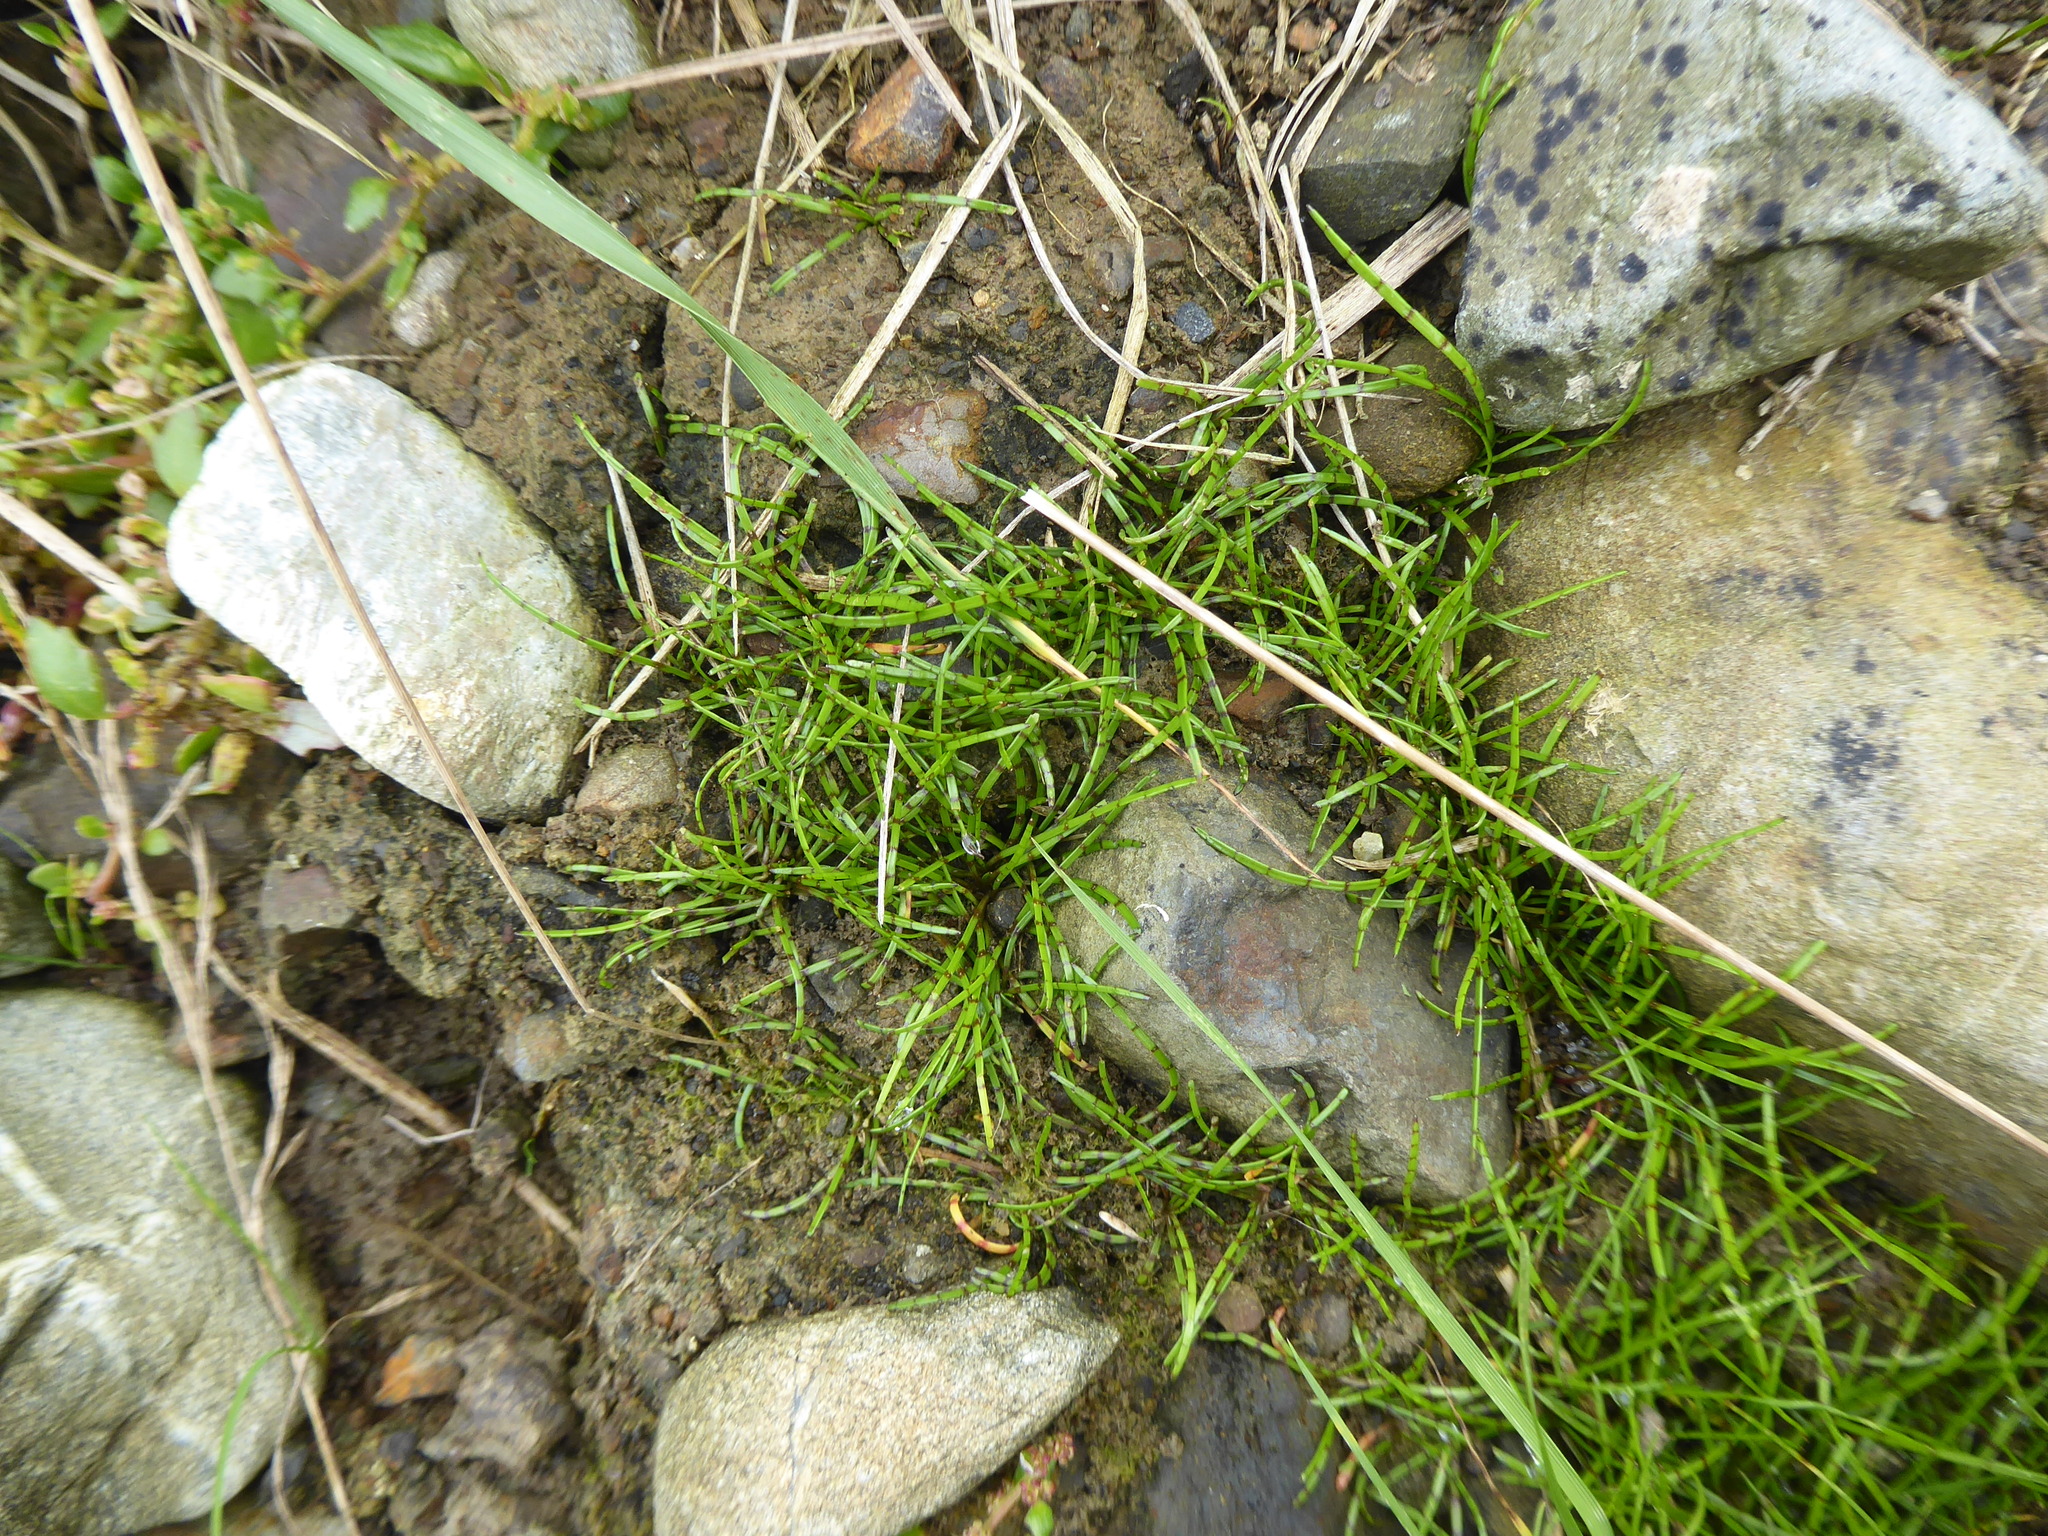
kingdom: Plantae
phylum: Tracheophyta
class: Magnoliopsida
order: Apiales
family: Apiaceae
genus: Lilaeopsis
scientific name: Lilaeopsis novae-zelandiae
